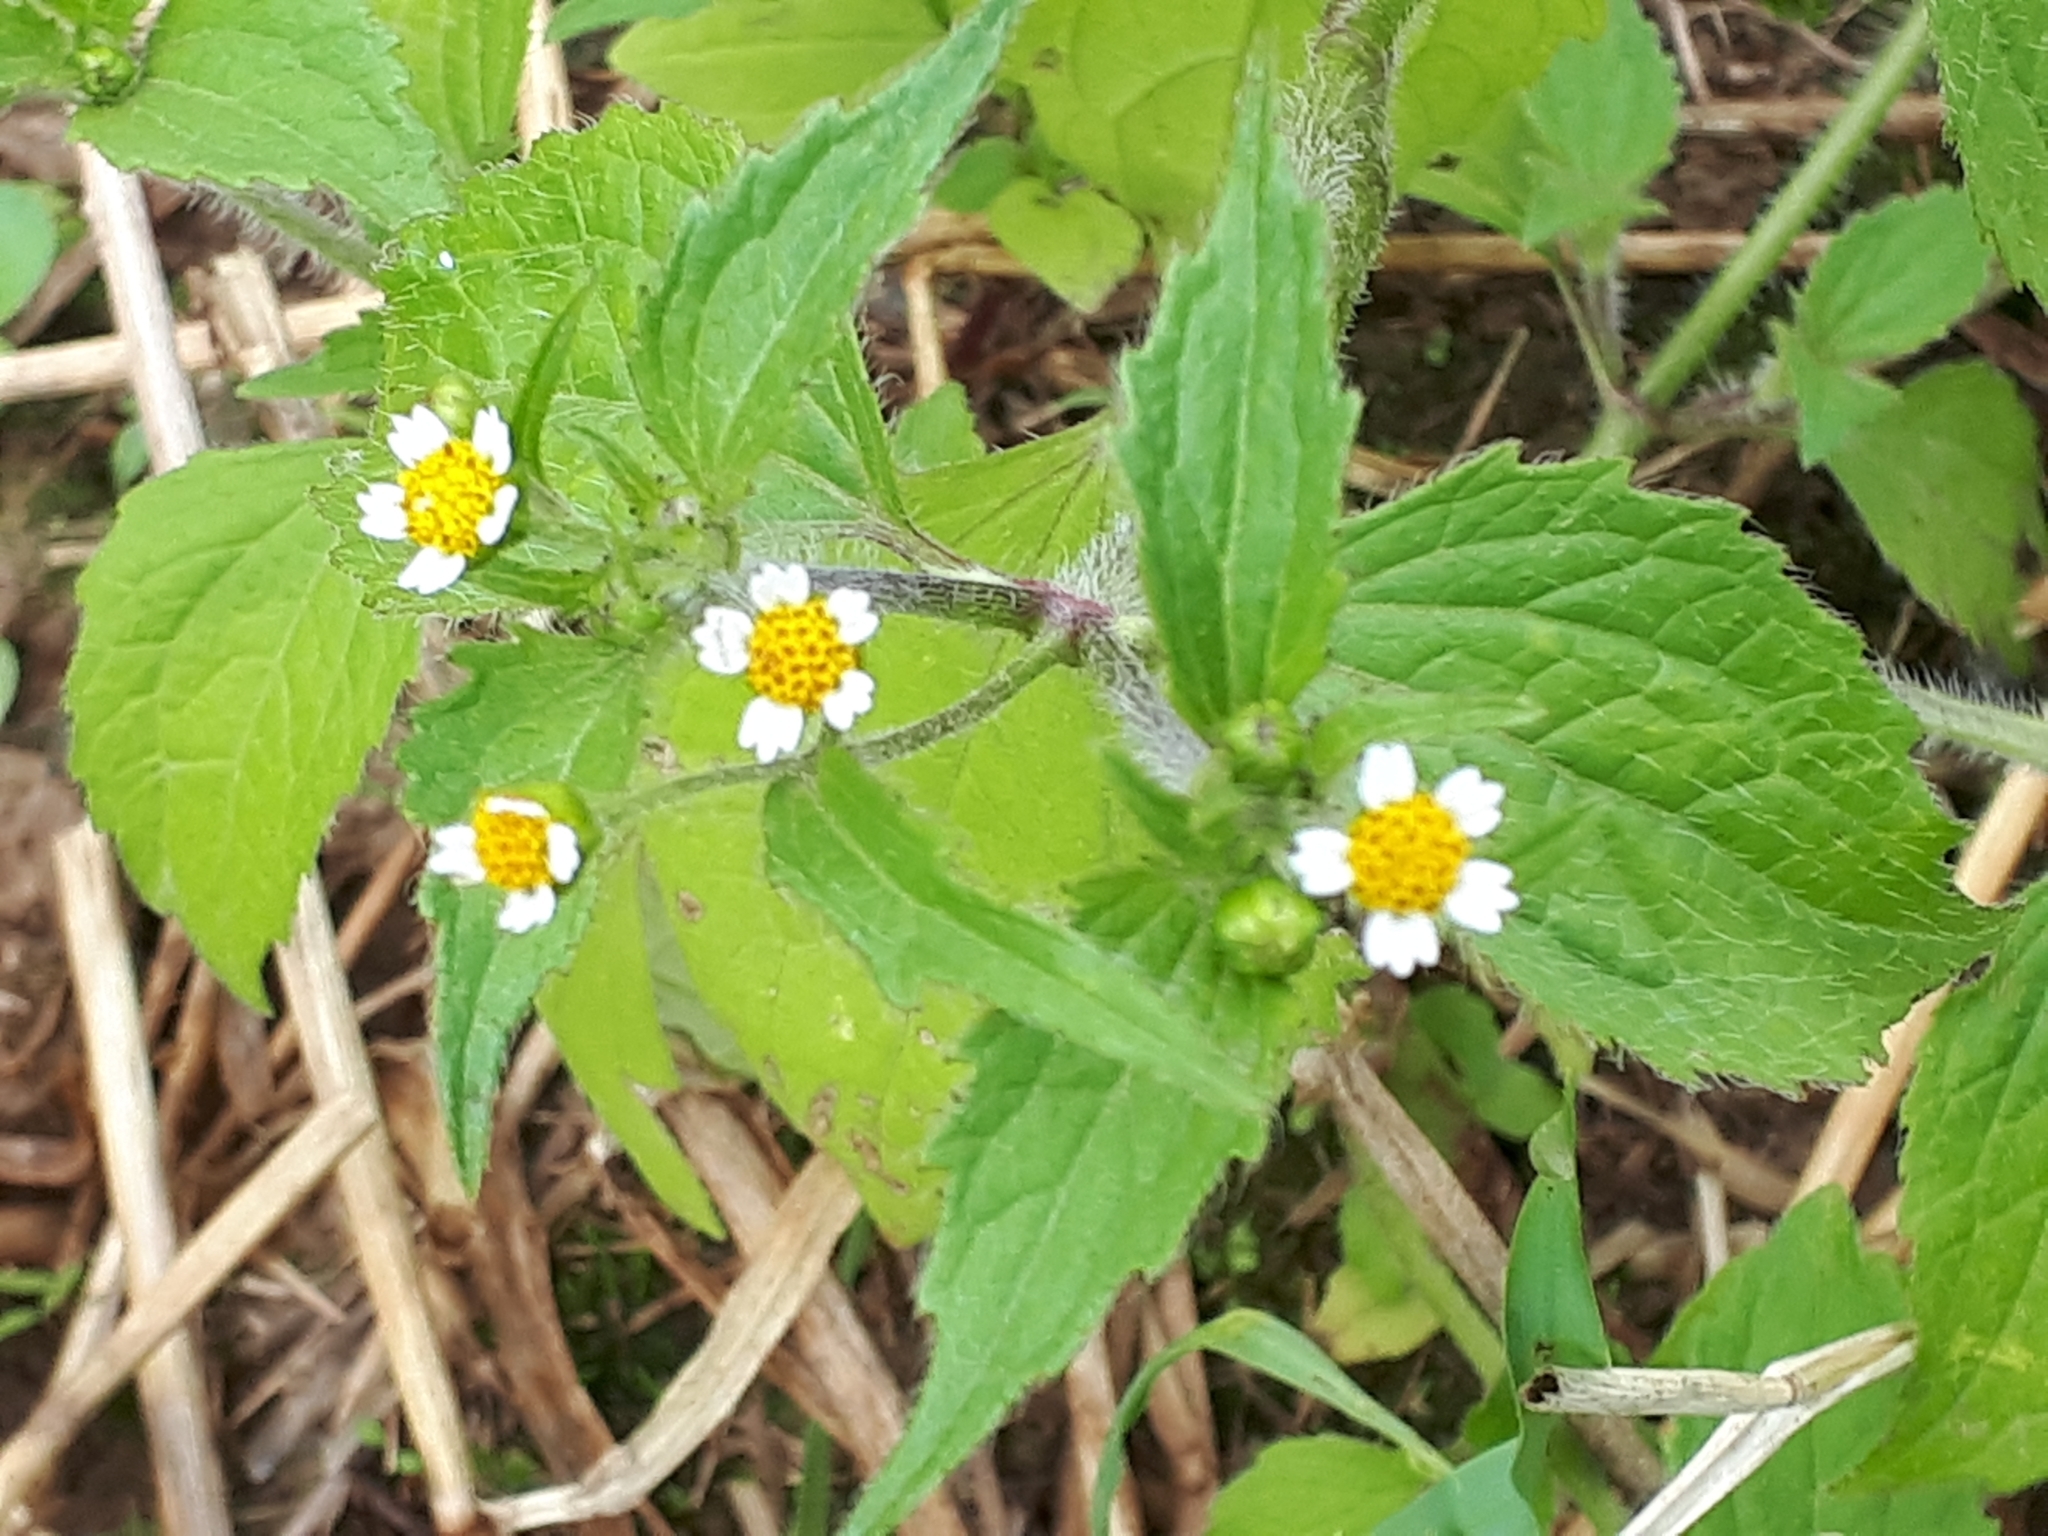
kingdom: Plantae
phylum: Tracheophyta
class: Magnoliopsida
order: Asterales
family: Asteraceae
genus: Galinsoga
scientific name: Galinsoga quadriradiata
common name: Shaggy soldier
